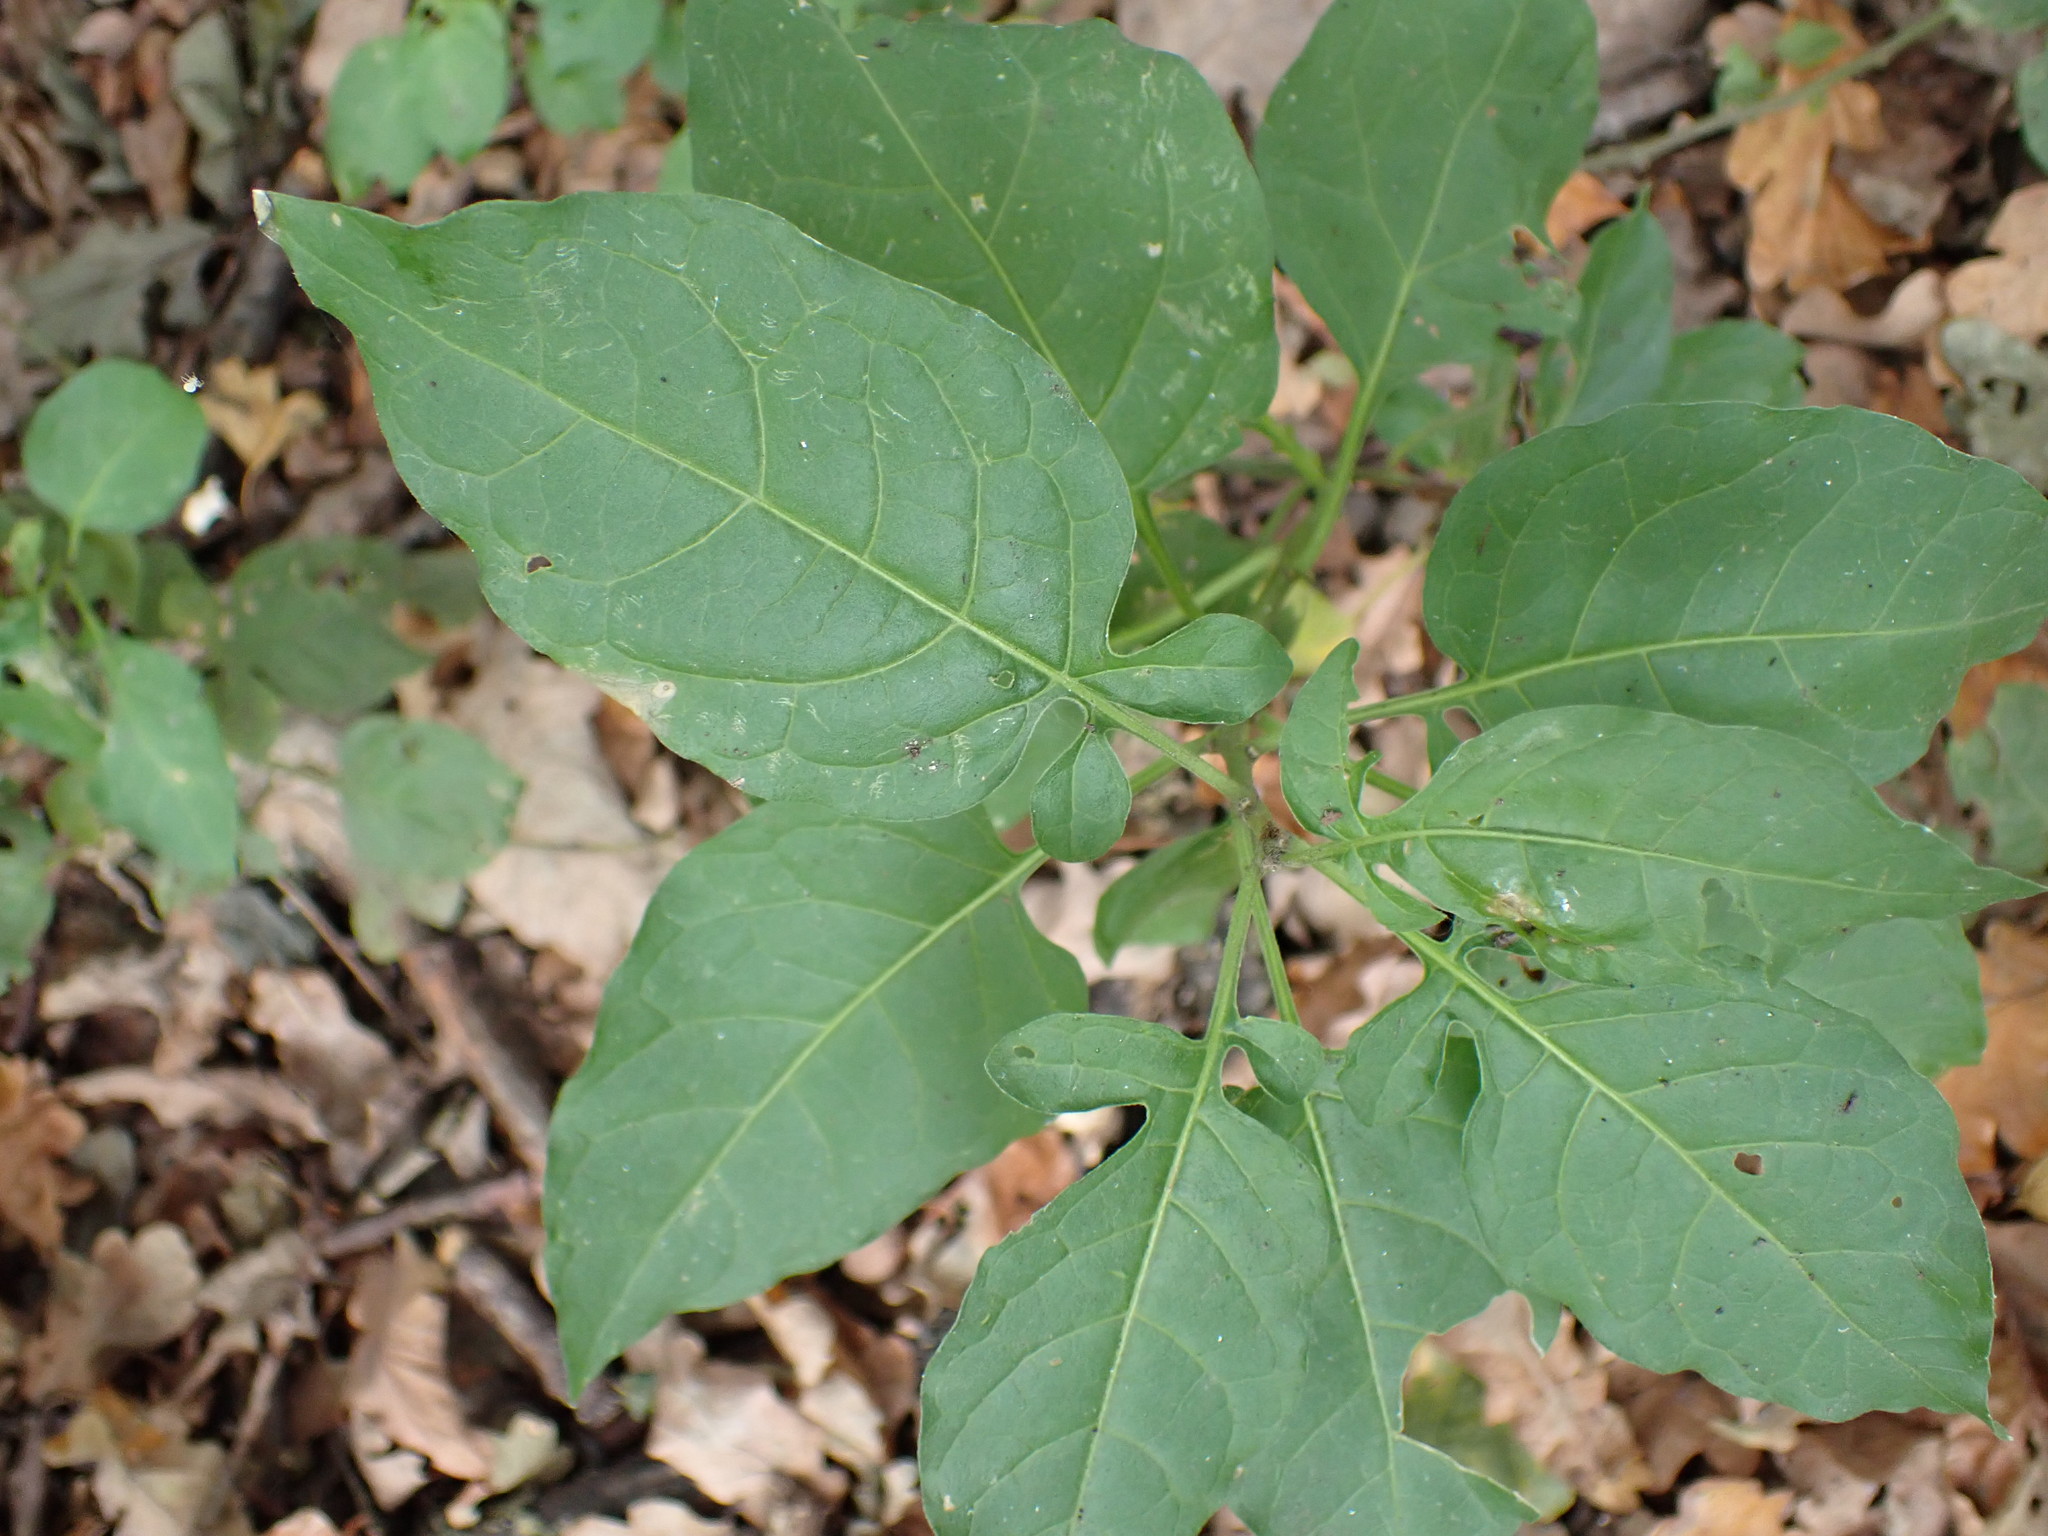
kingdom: Plantae
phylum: Tracheophyta
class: Magnoliopsida
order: Solanales
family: Solanaceae
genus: Solanum
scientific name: Solanum dulcamara
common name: Climbing nightshade
